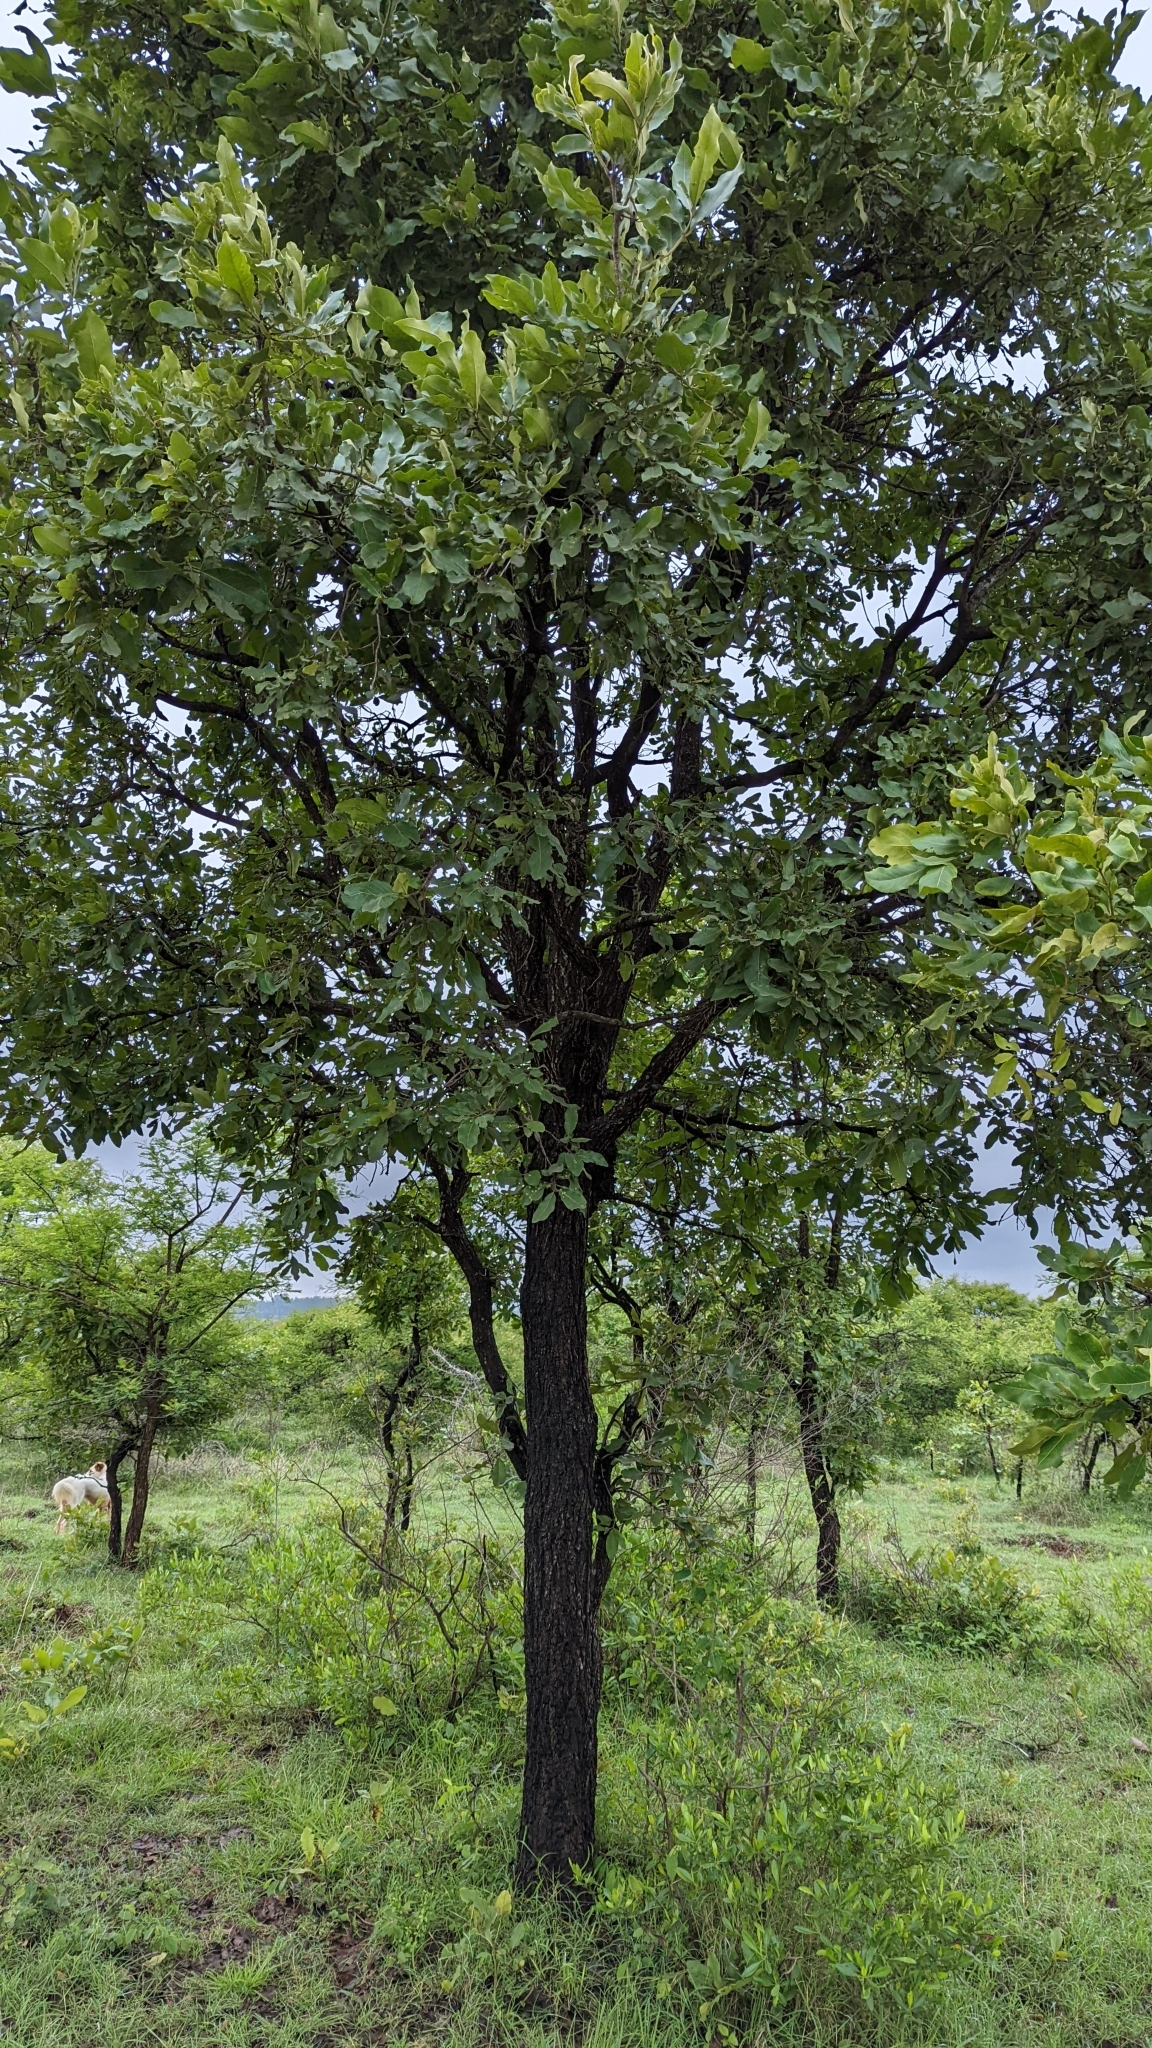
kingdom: Plantae
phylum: Tracheophyta
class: Magnoliopsida
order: Ericales
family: Ebenaceae
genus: Diospyros
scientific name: Diospyros melanoxylon
